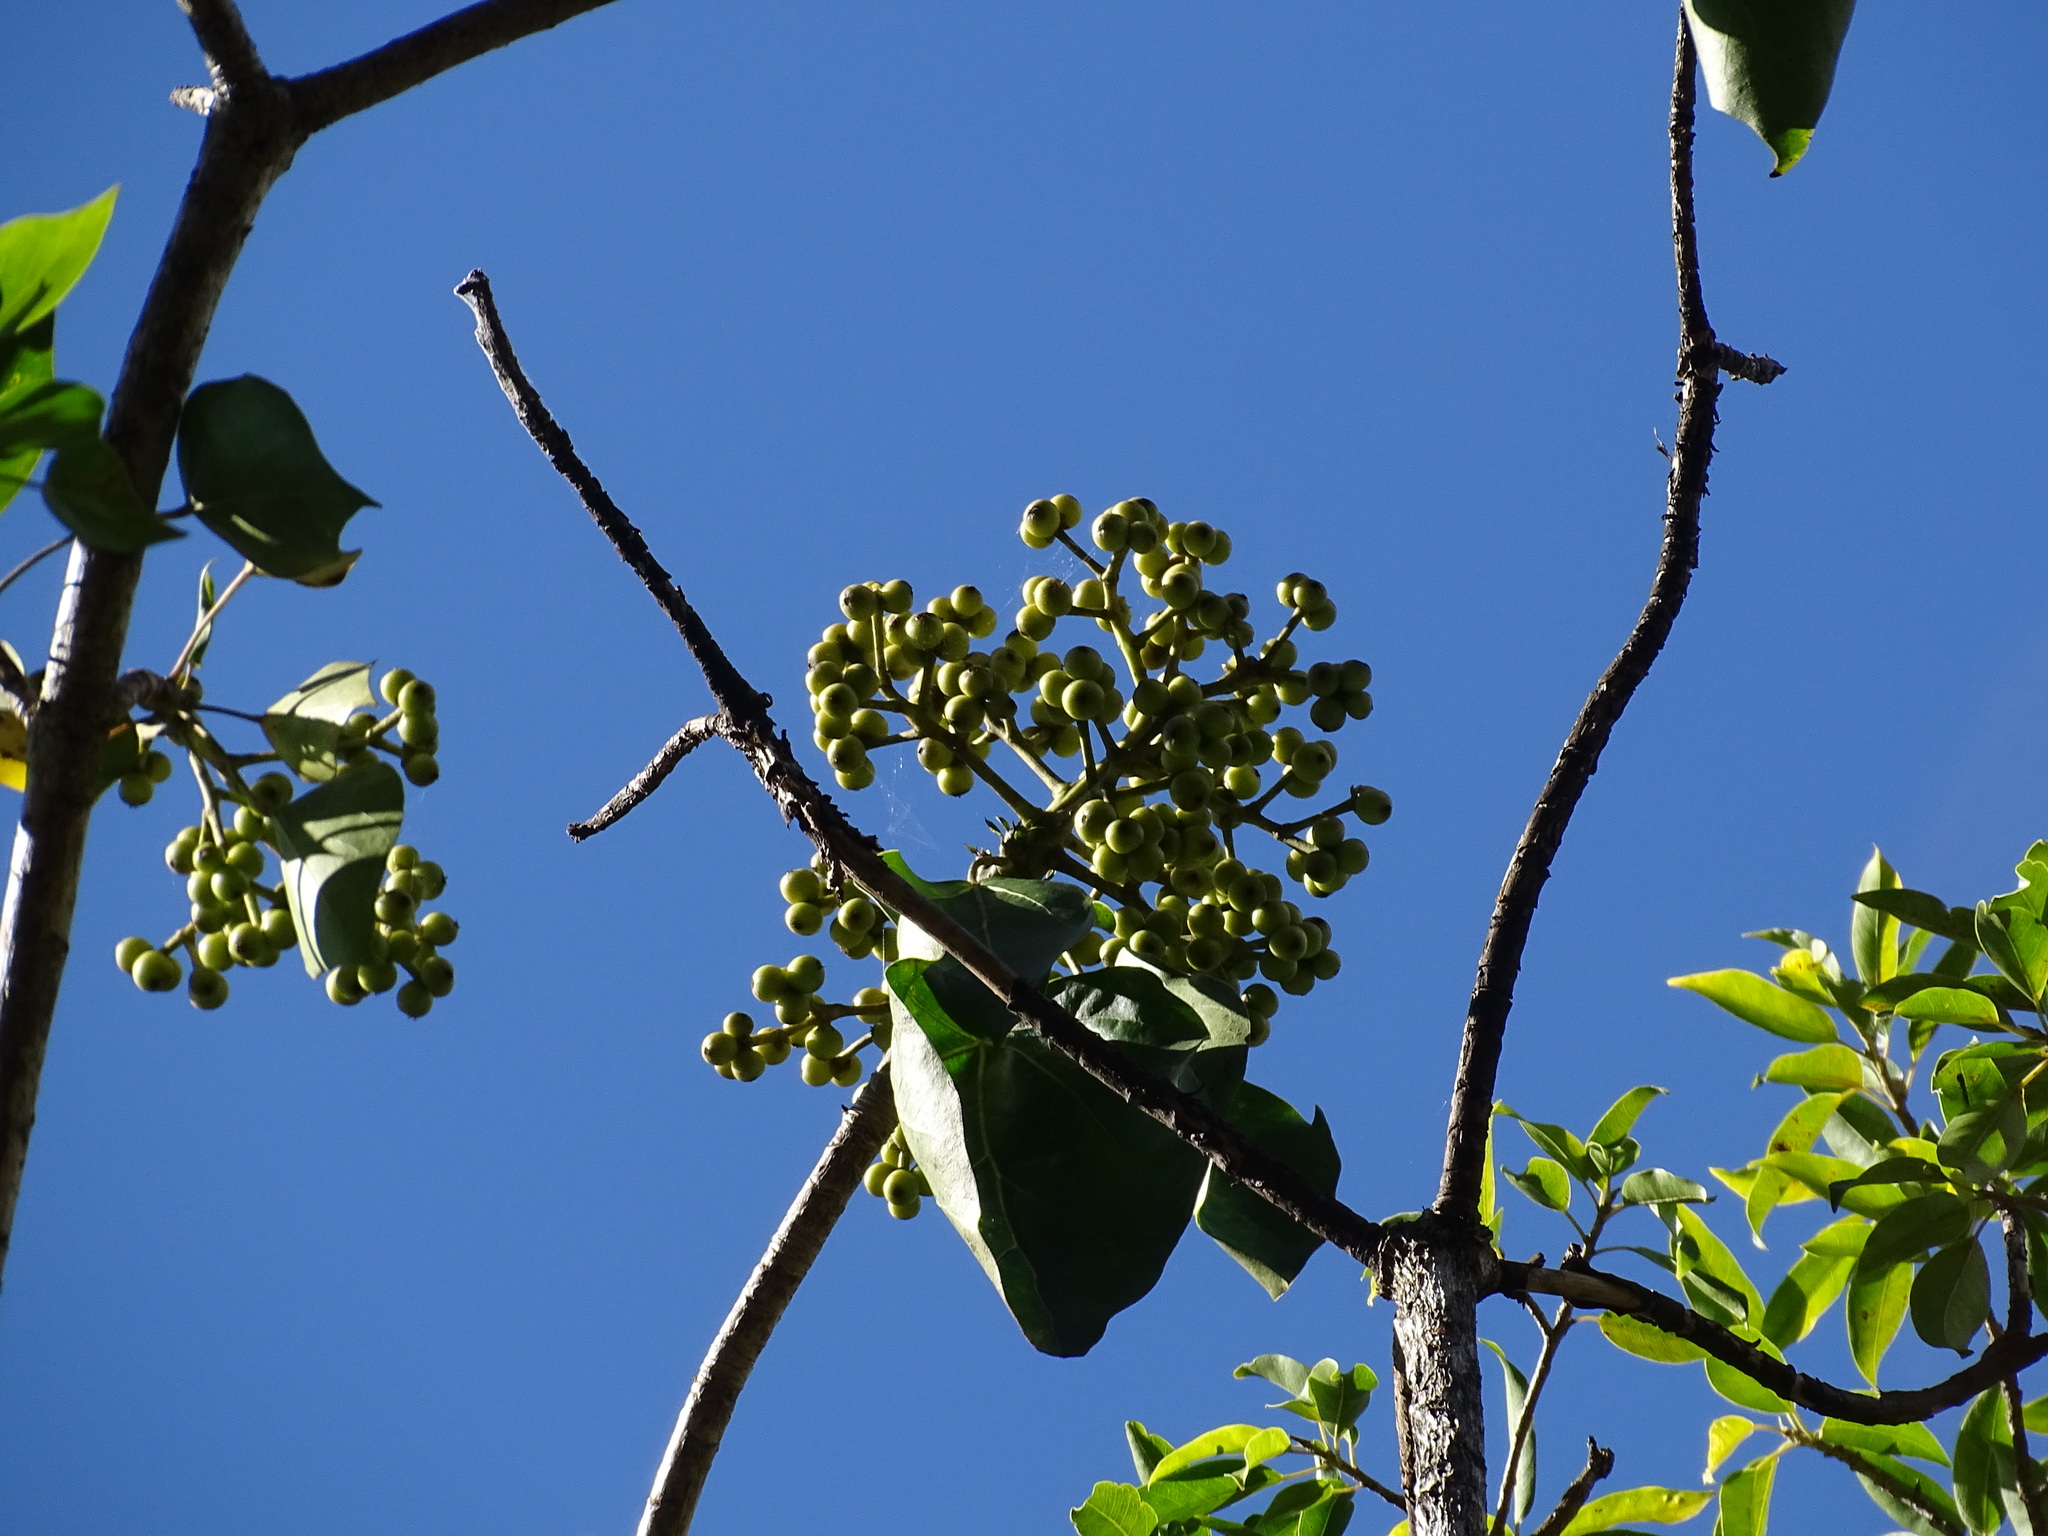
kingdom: Plantae
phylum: Tracheophyta
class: Magnoliopsida
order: Apiales
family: Araliaceae
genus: Dendropanax
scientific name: Dendropanax arboreus
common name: Potato-wood
